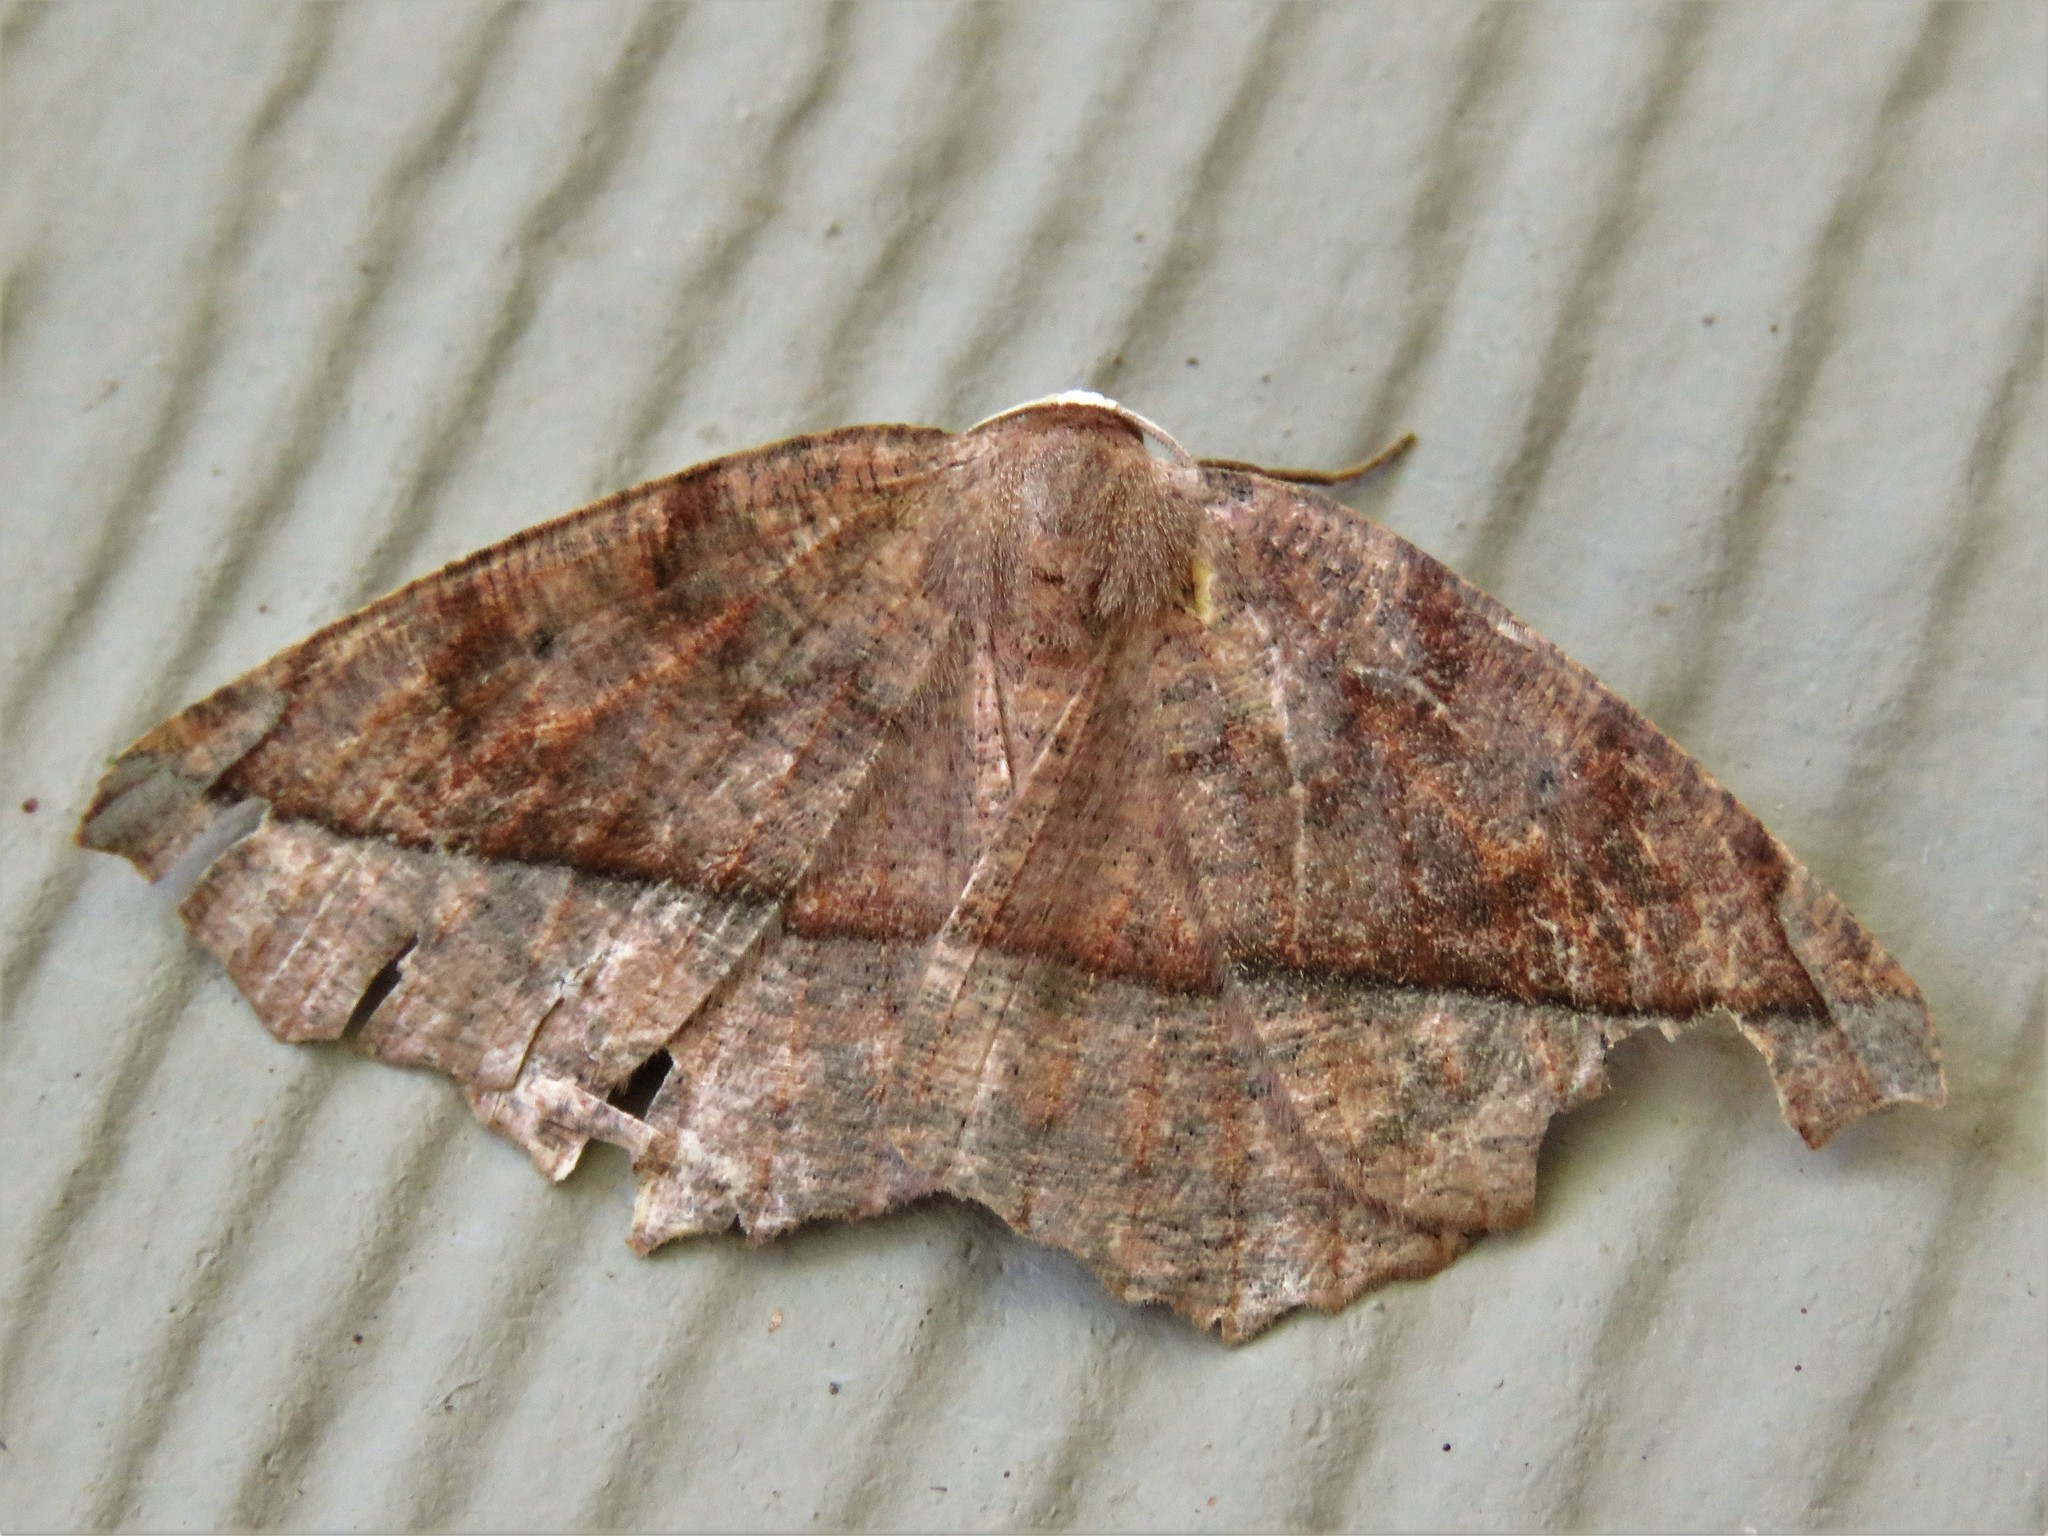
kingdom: Animalia
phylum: Arthropoda
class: Insecta
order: Lepidoptera
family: Geometridae
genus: Eutrapela
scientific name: Eutrapela clemataria
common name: Curved-toothed geometer
